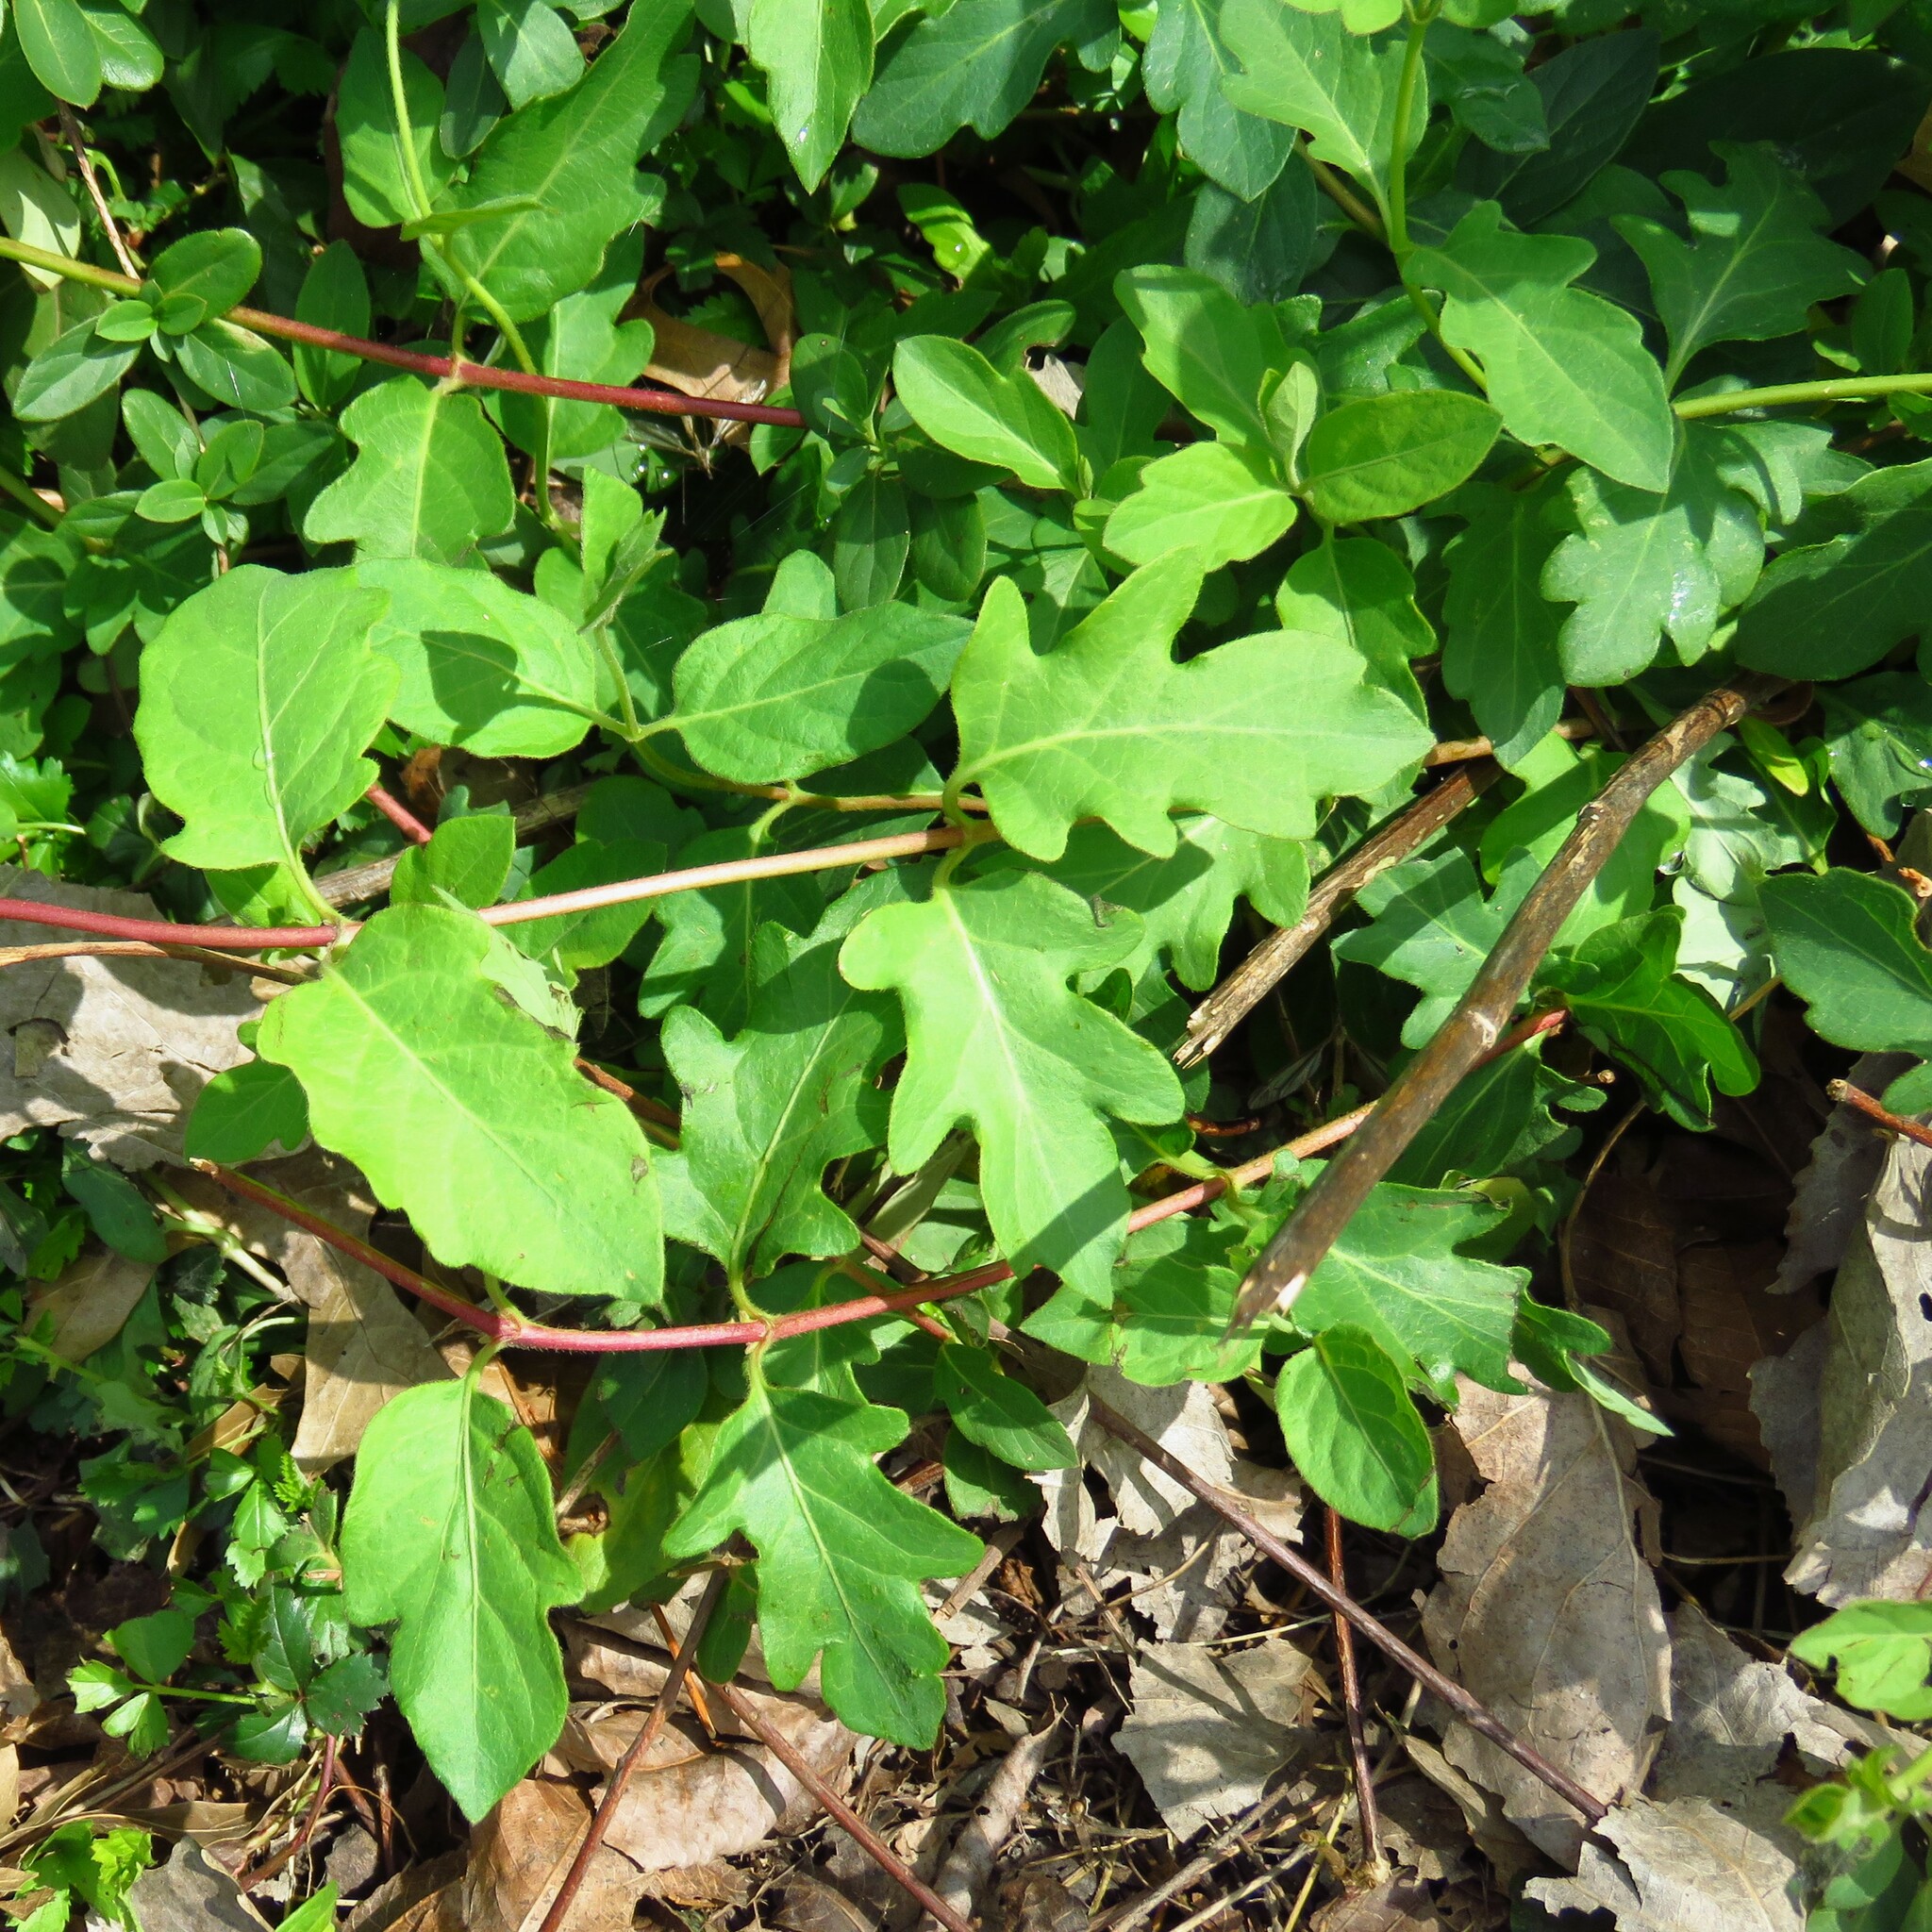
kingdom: Plantae
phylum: Tracheophyta
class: Magnoliopsida
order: Dipsacales
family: Caprifoliaceae
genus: Lonicera
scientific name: Lonicera japonica
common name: Japanese honeysuckle
